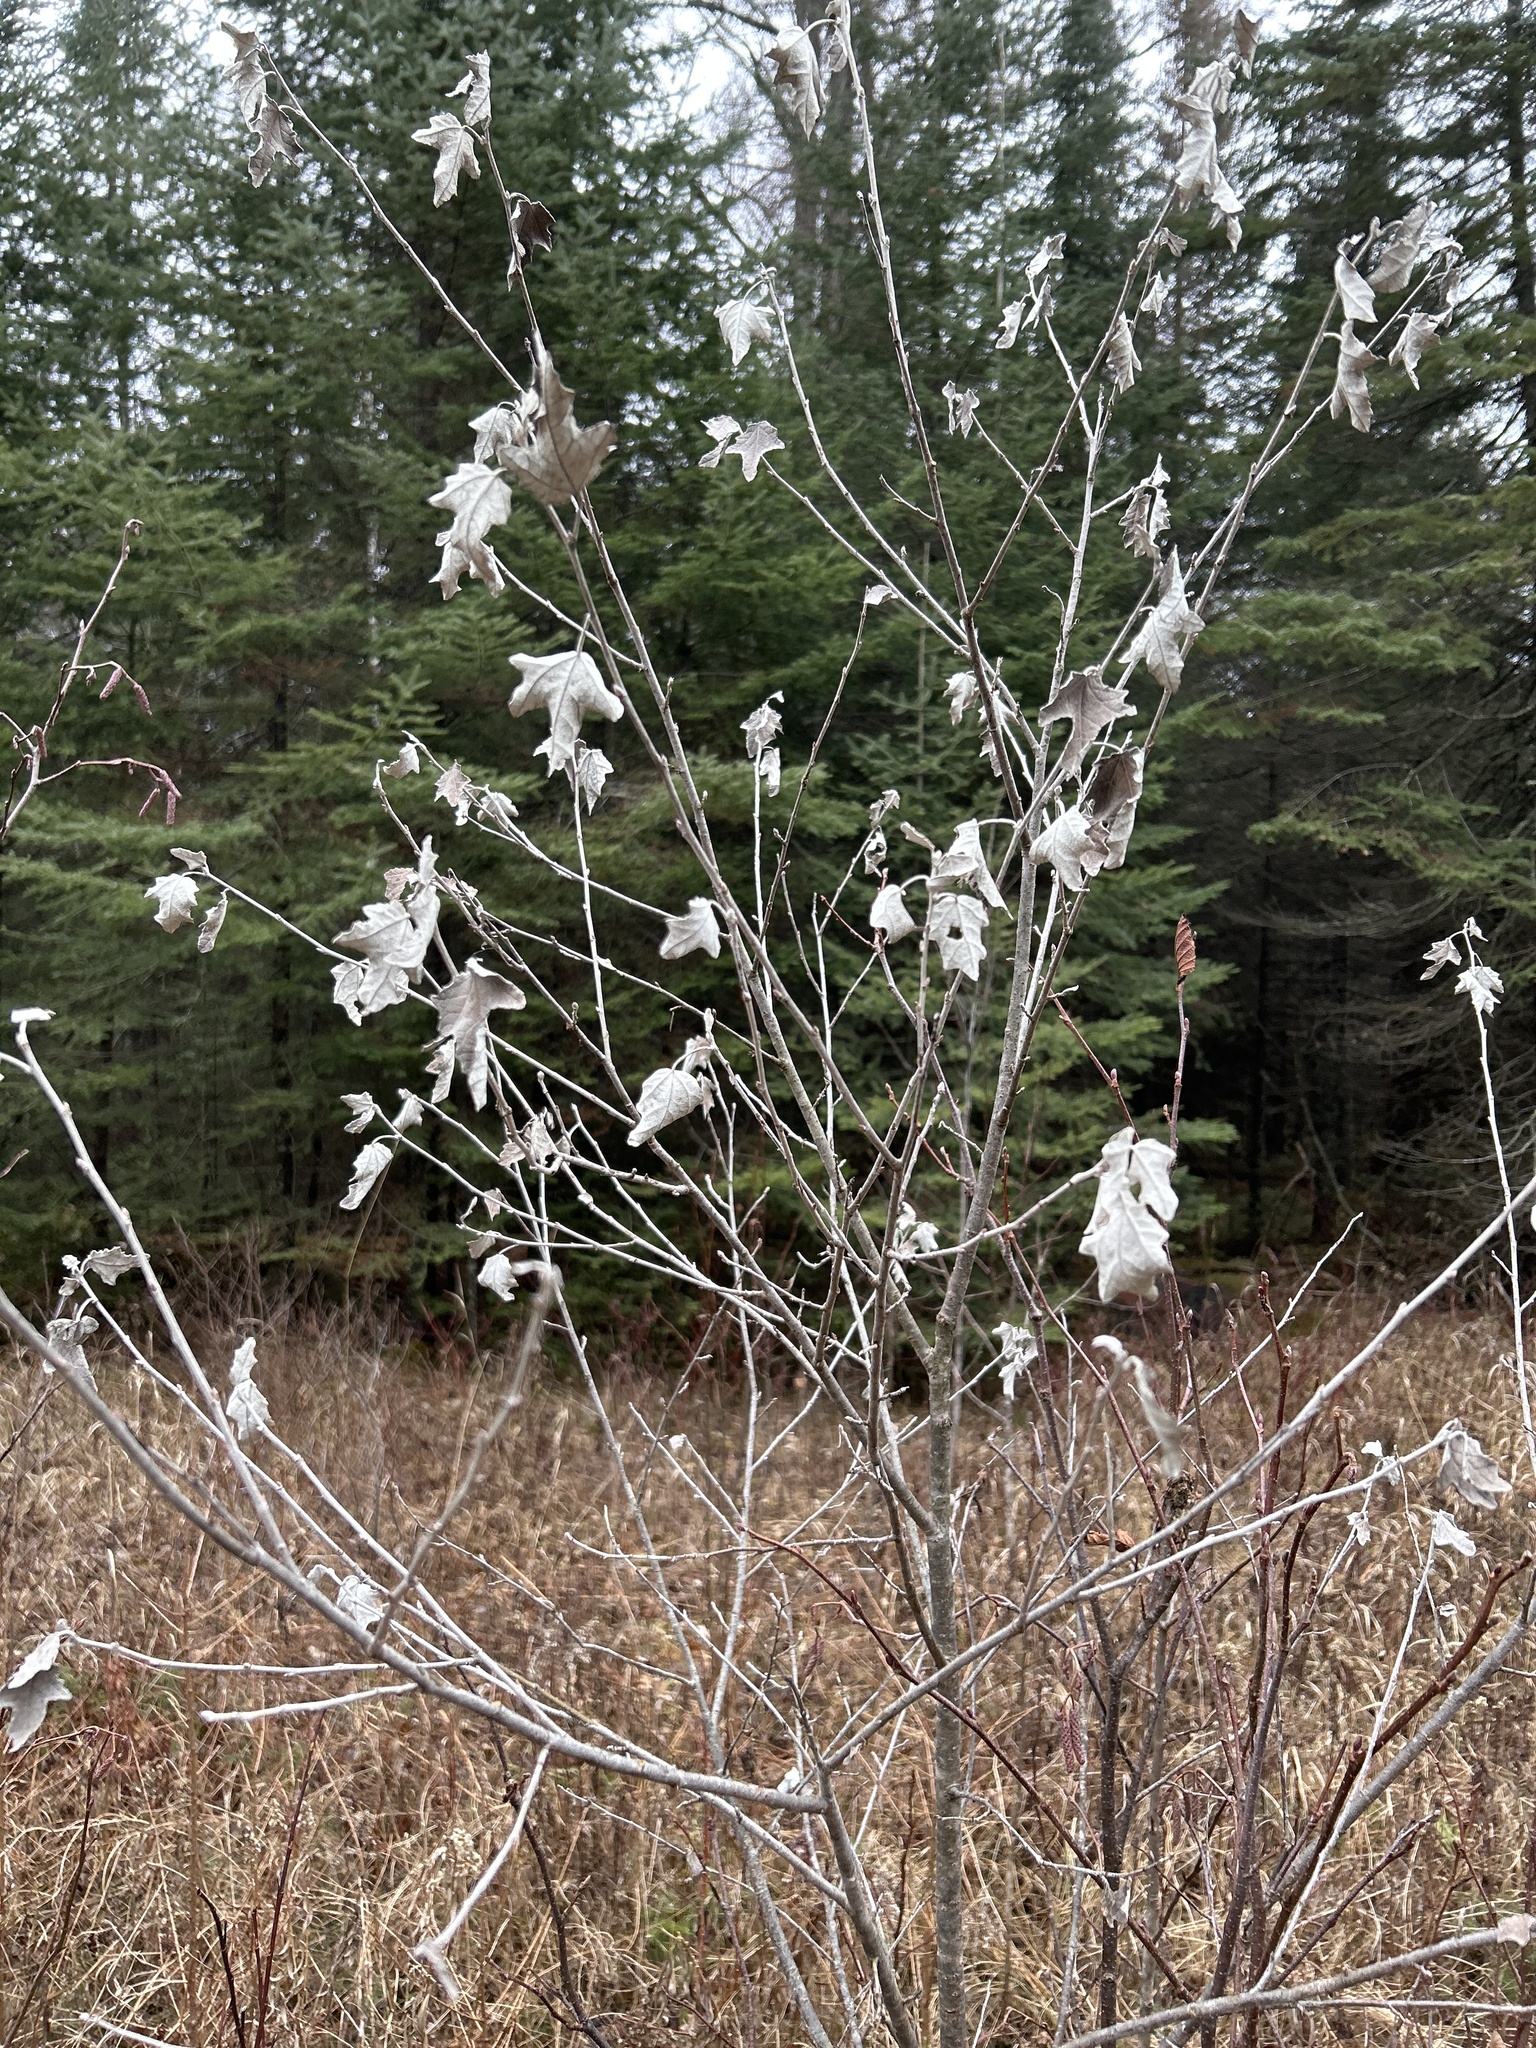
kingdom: Plantae
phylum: Tracheophyta
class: Magnoliopsida
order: Malpighiales
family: Salicaceae
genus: Populus
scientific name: Populus alba
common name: White poplar
